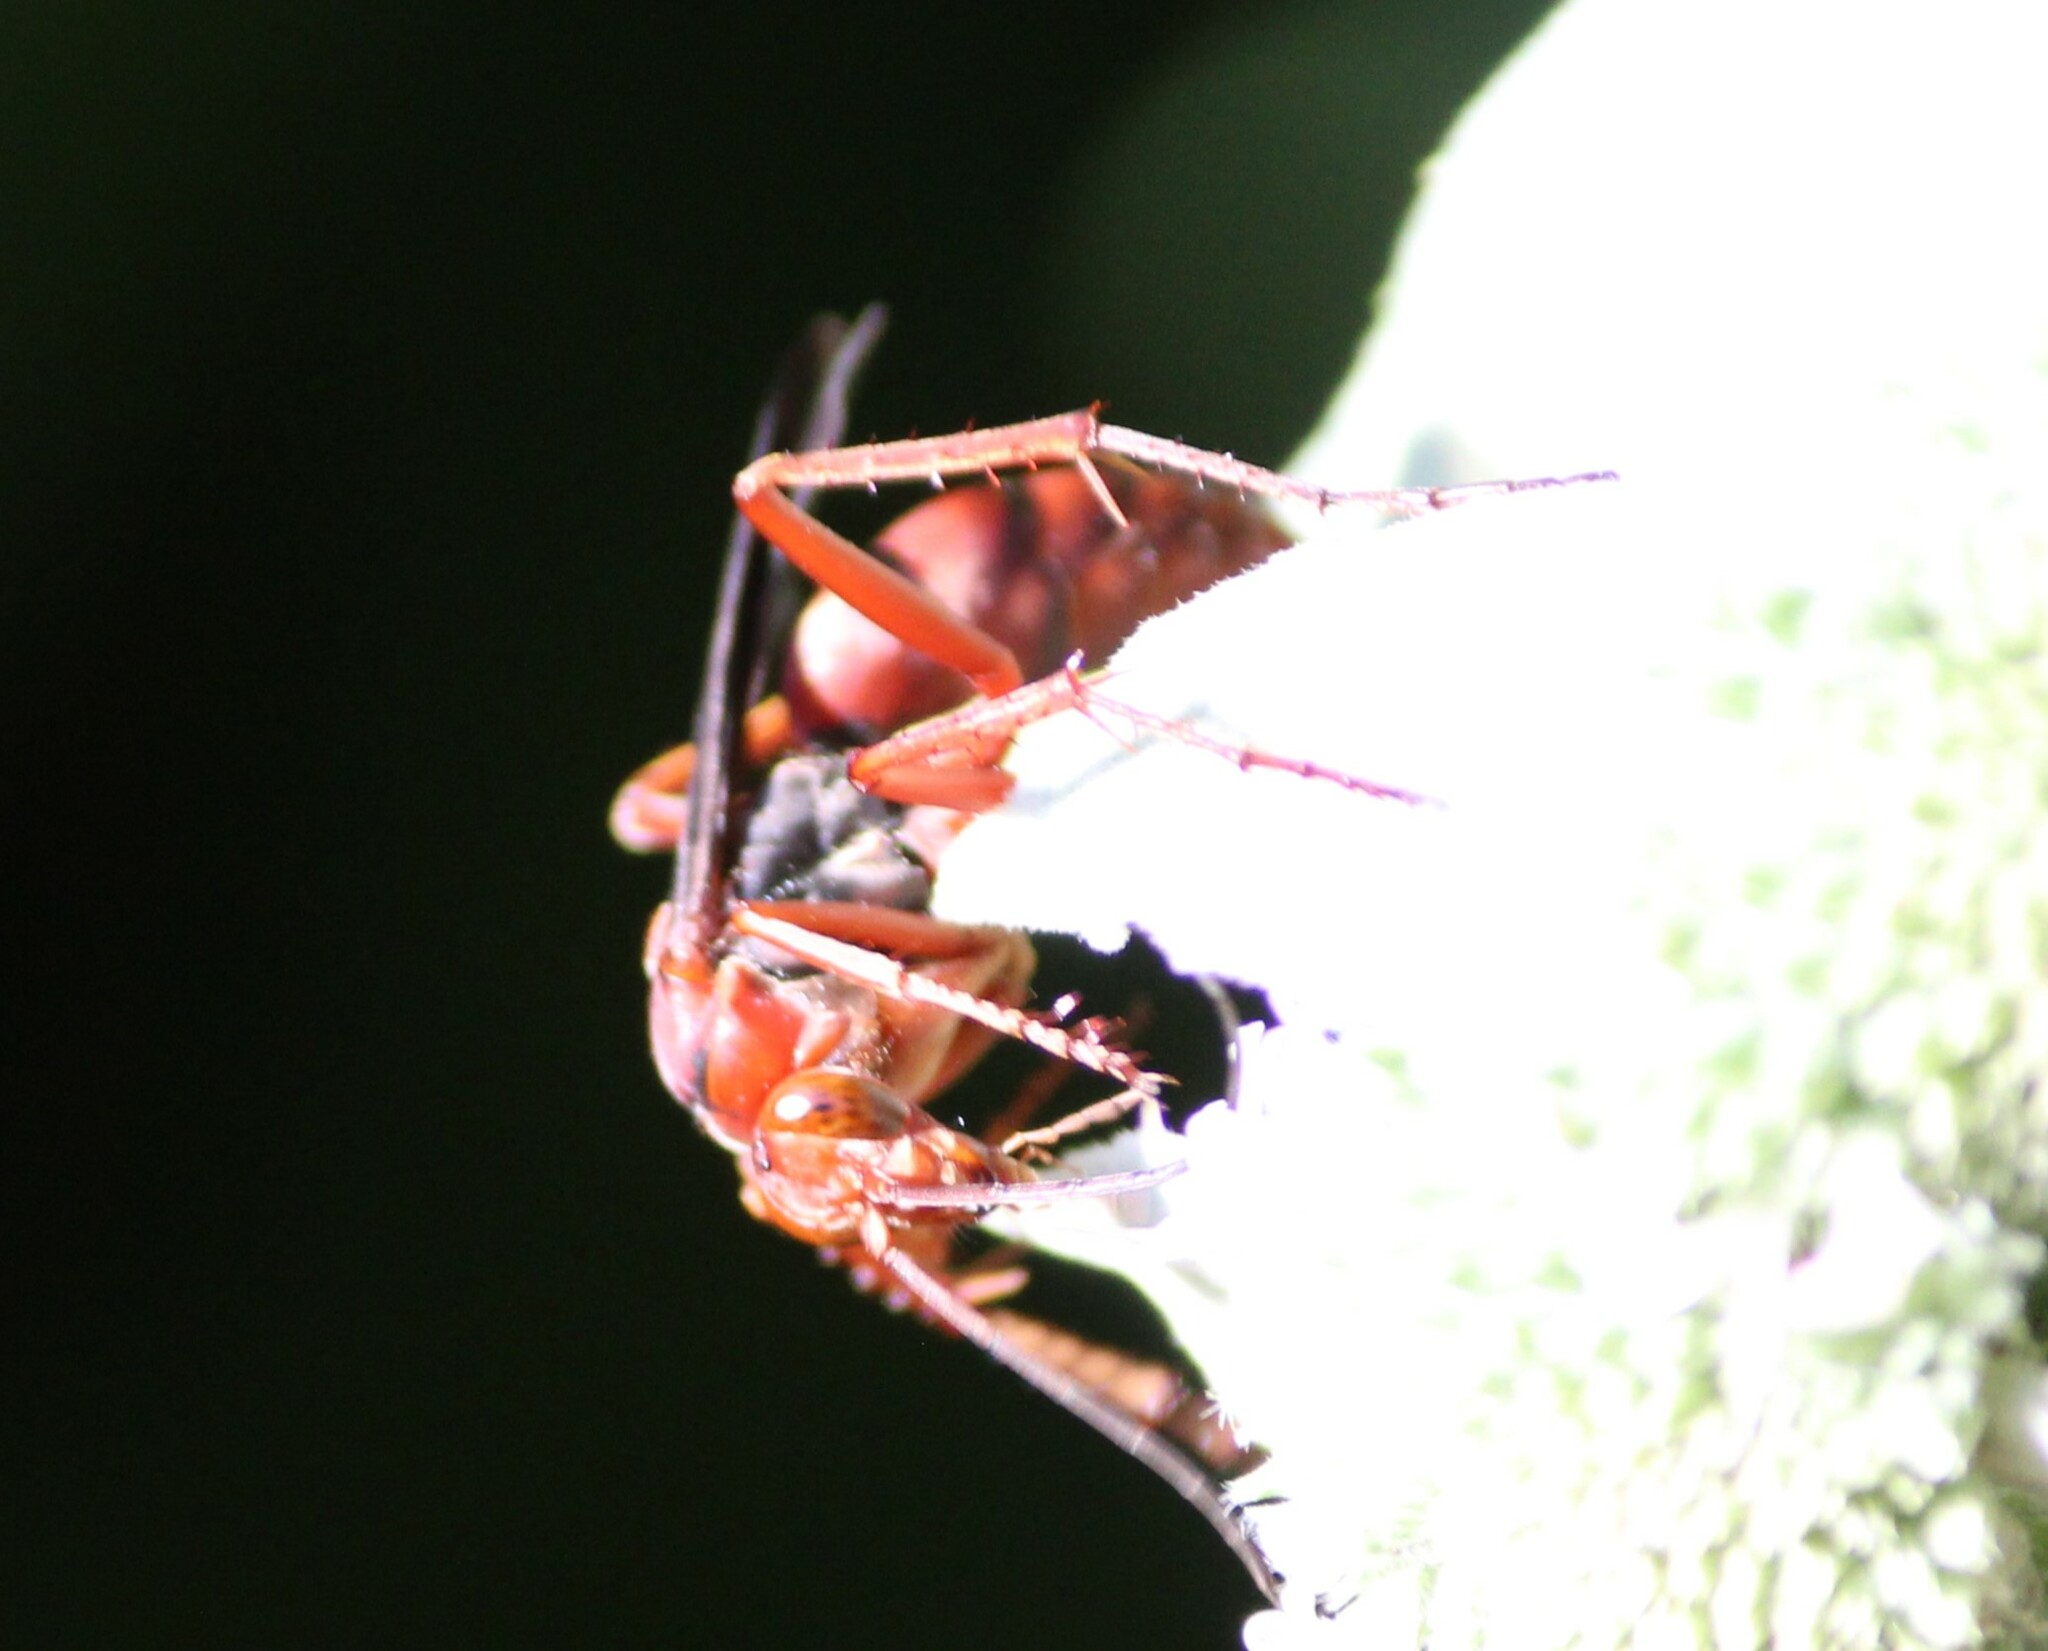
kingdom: Animalia
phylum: Arthropoda
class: Insecta
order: Hymenoptera
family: Pompilidae
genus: Tachypompilus
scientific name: Tachypompilus ferrugineus
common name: Rusty spider wasp
